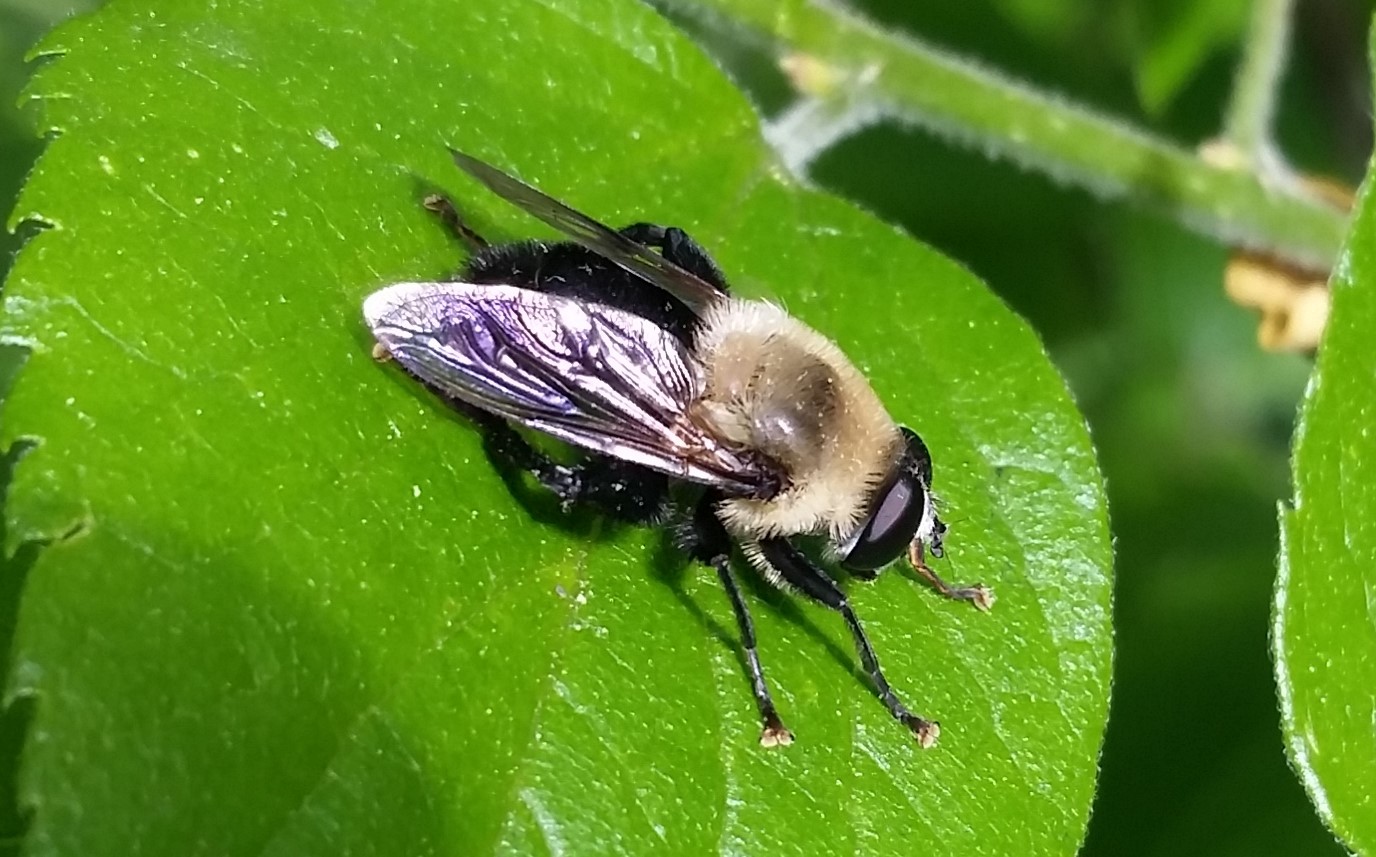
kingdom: Animalia
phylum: Arthropoda
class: Insecta
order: Diptera
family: Syrphidae
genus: Imatisma
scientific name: Imatisma bautias
